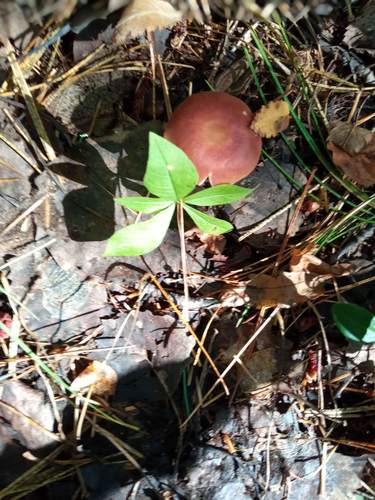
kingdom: Fungi
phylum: Basidiomycota
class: Agaricomycetes
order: Agaricales
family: Omphalotaceae
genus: Gymnopus
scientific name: Gymnopus
